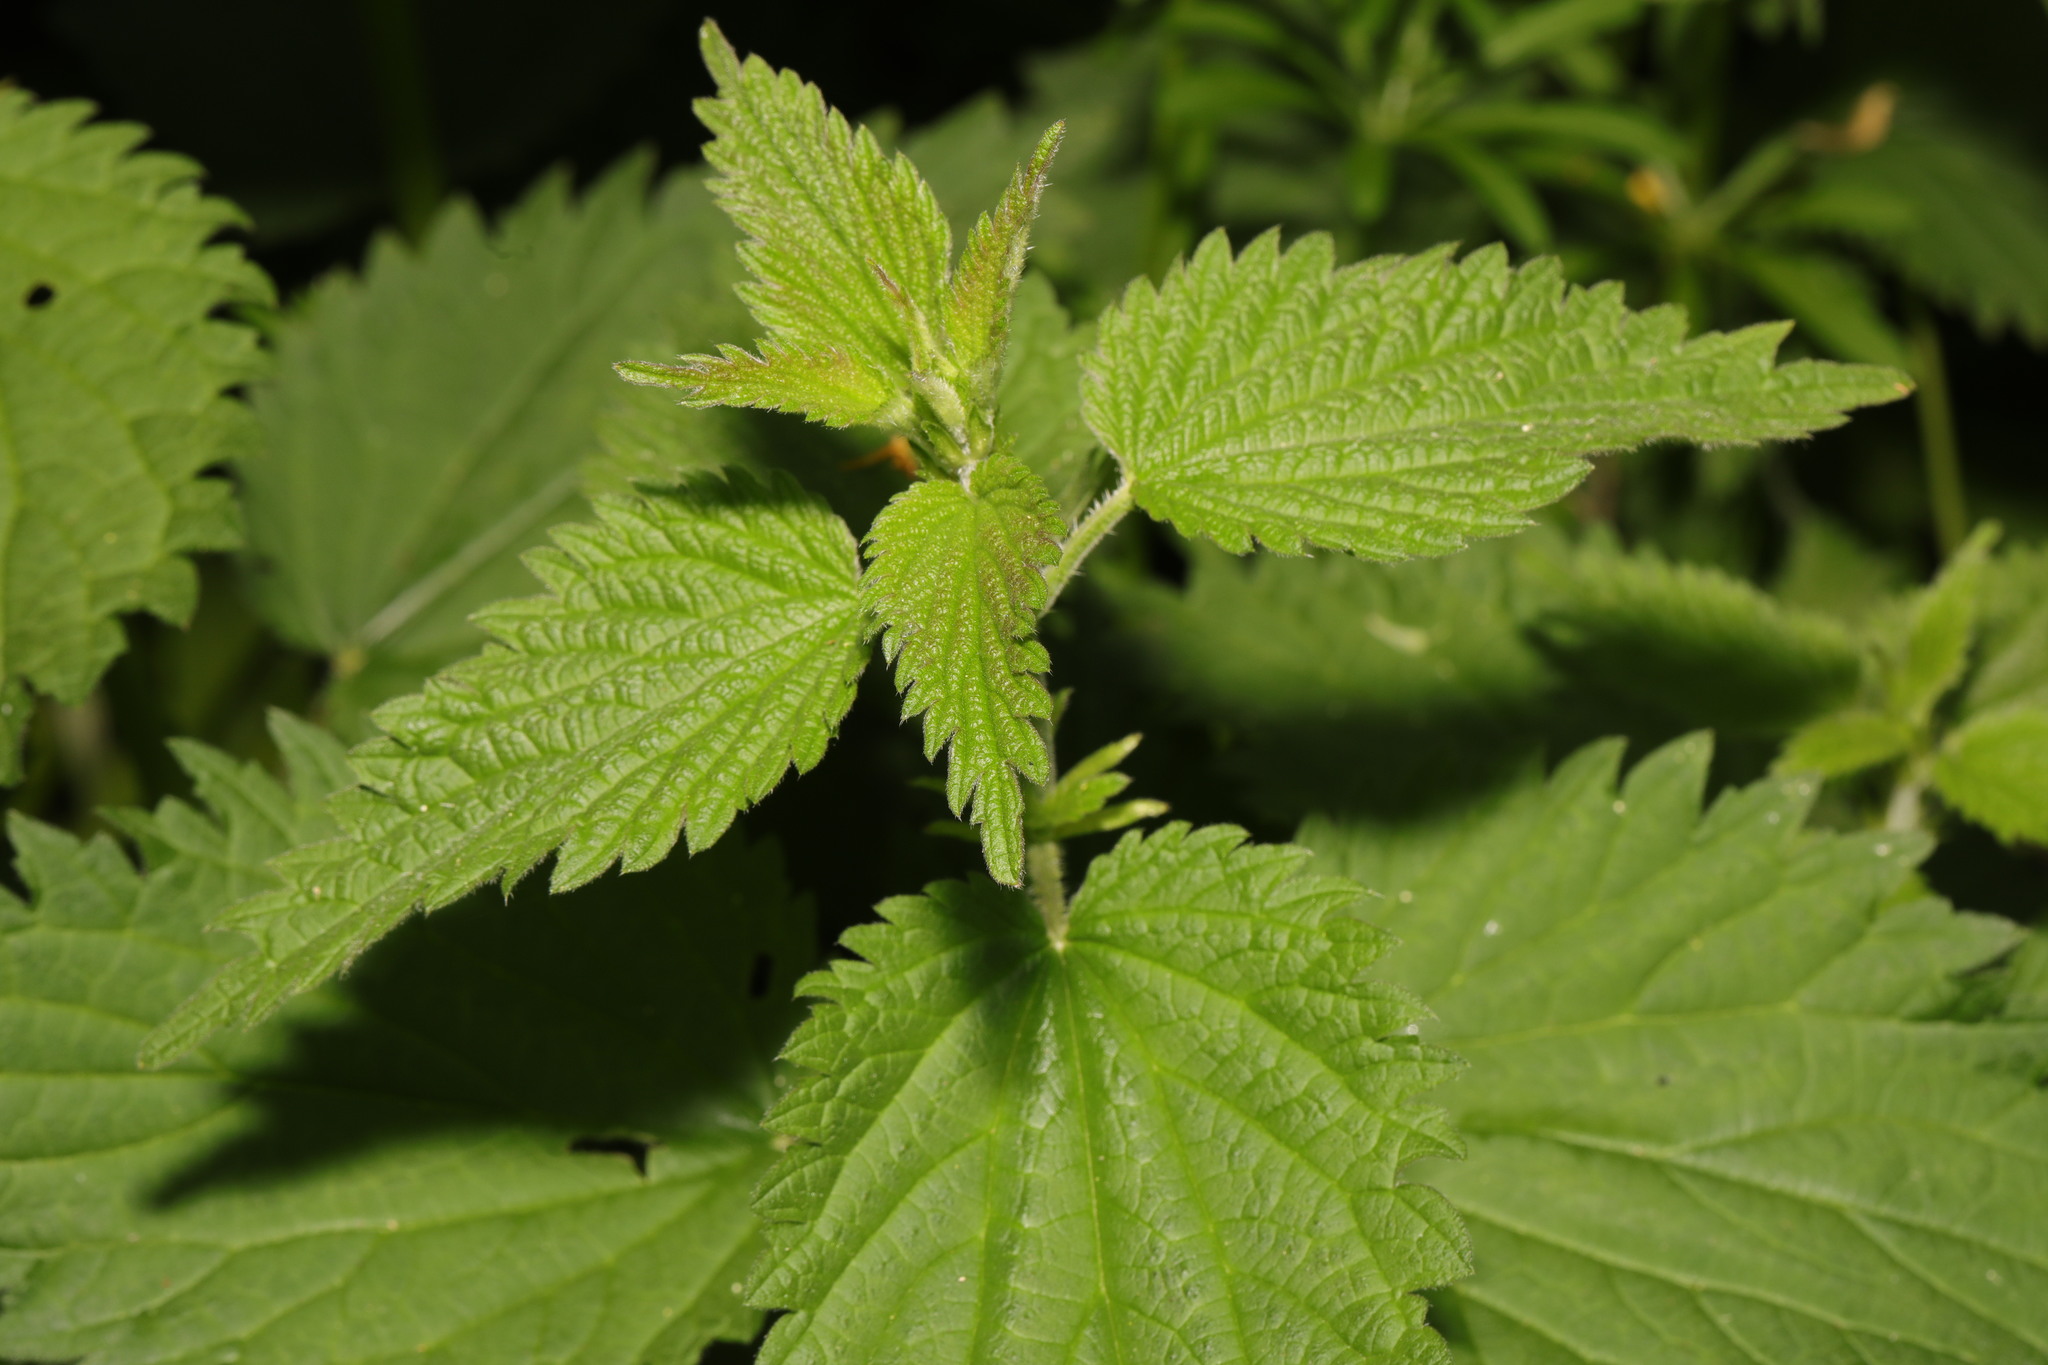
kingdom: Plantae
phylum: Tracheophyta
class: Magnoliopsida
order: Rosales
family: Urticaceae
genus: Urtica
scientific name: Urtica dioica
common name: Common nettle
